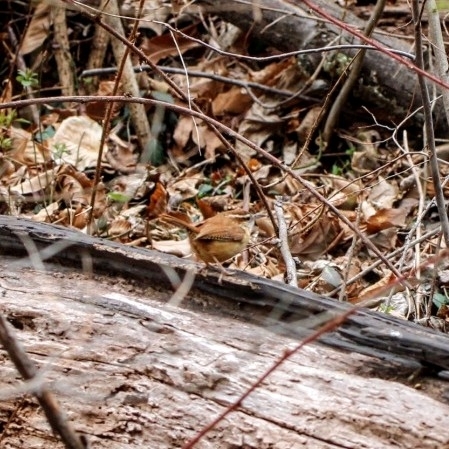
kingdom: Animalia
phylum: Chordata
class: Aves
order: Passeriformes
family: Troglodytidae
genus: Thryothorus
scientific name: Thryothorus ludovicianus
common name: Carolina wren
